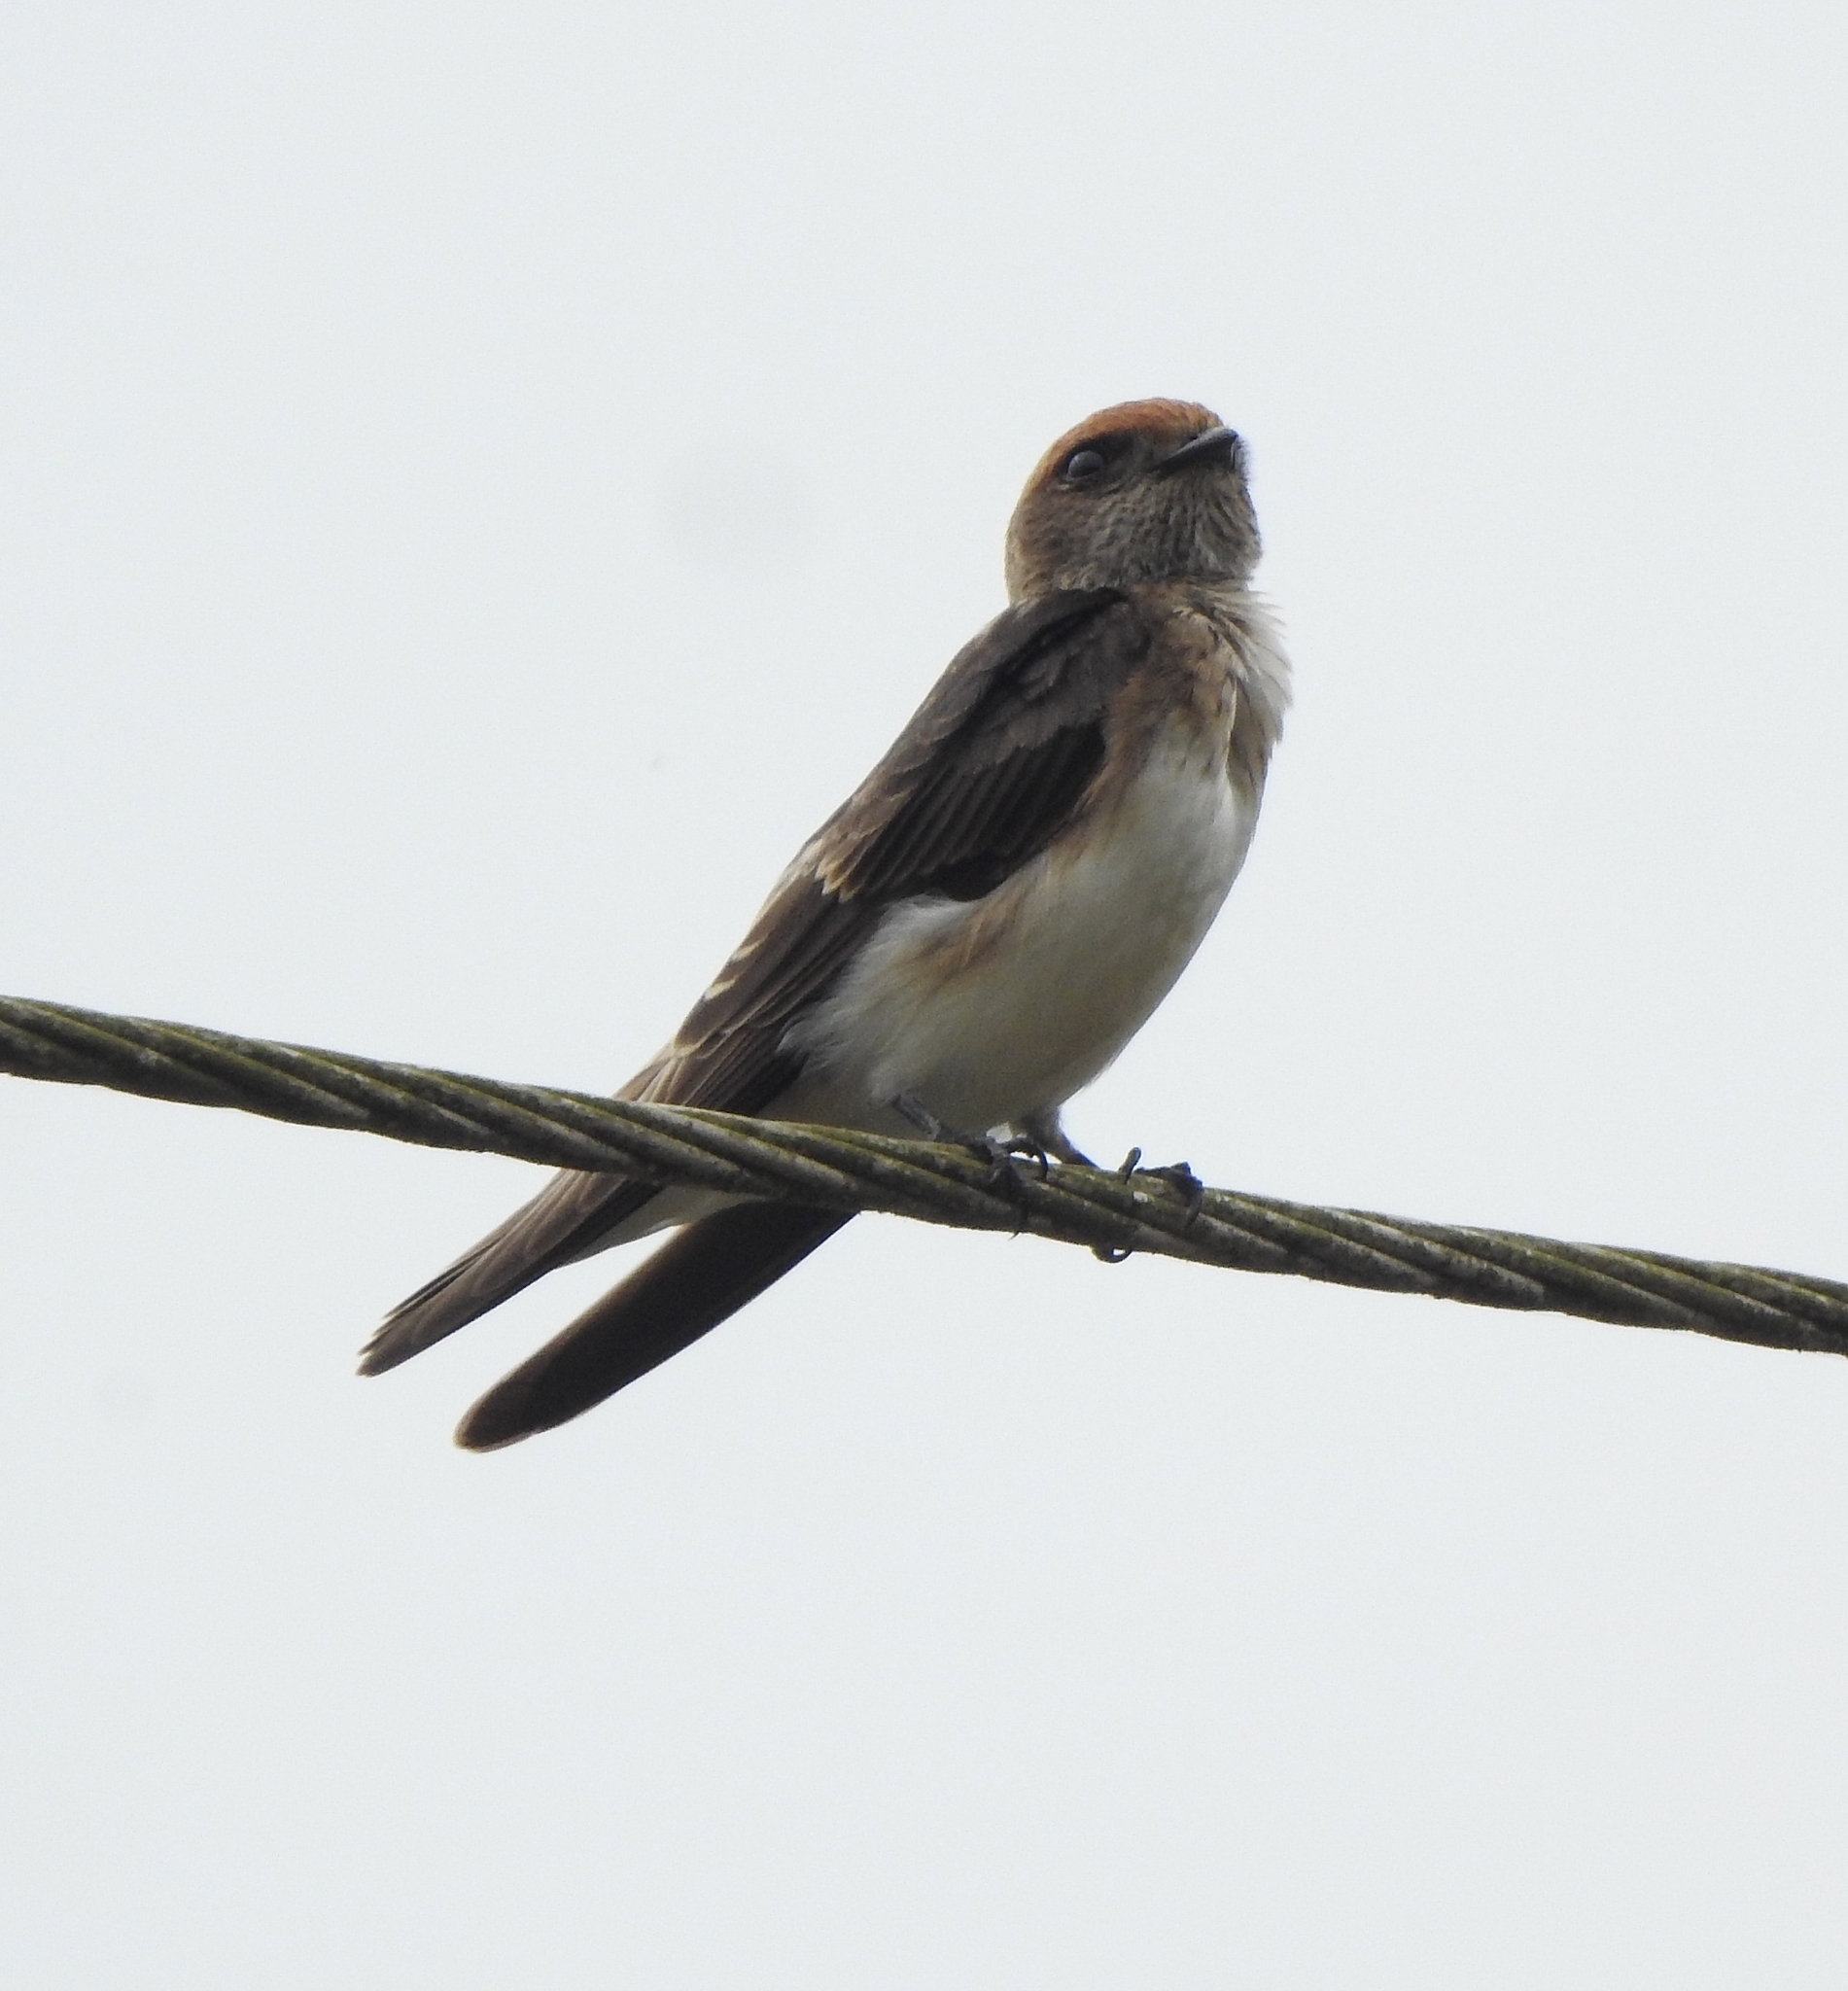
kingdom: Animalia
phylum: Chordata
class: Aves
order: Passeriformes
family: Hirundinidae
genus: Petrochelidon
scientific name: Petrochelidon fluvicola
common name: Streak-throated swallow
